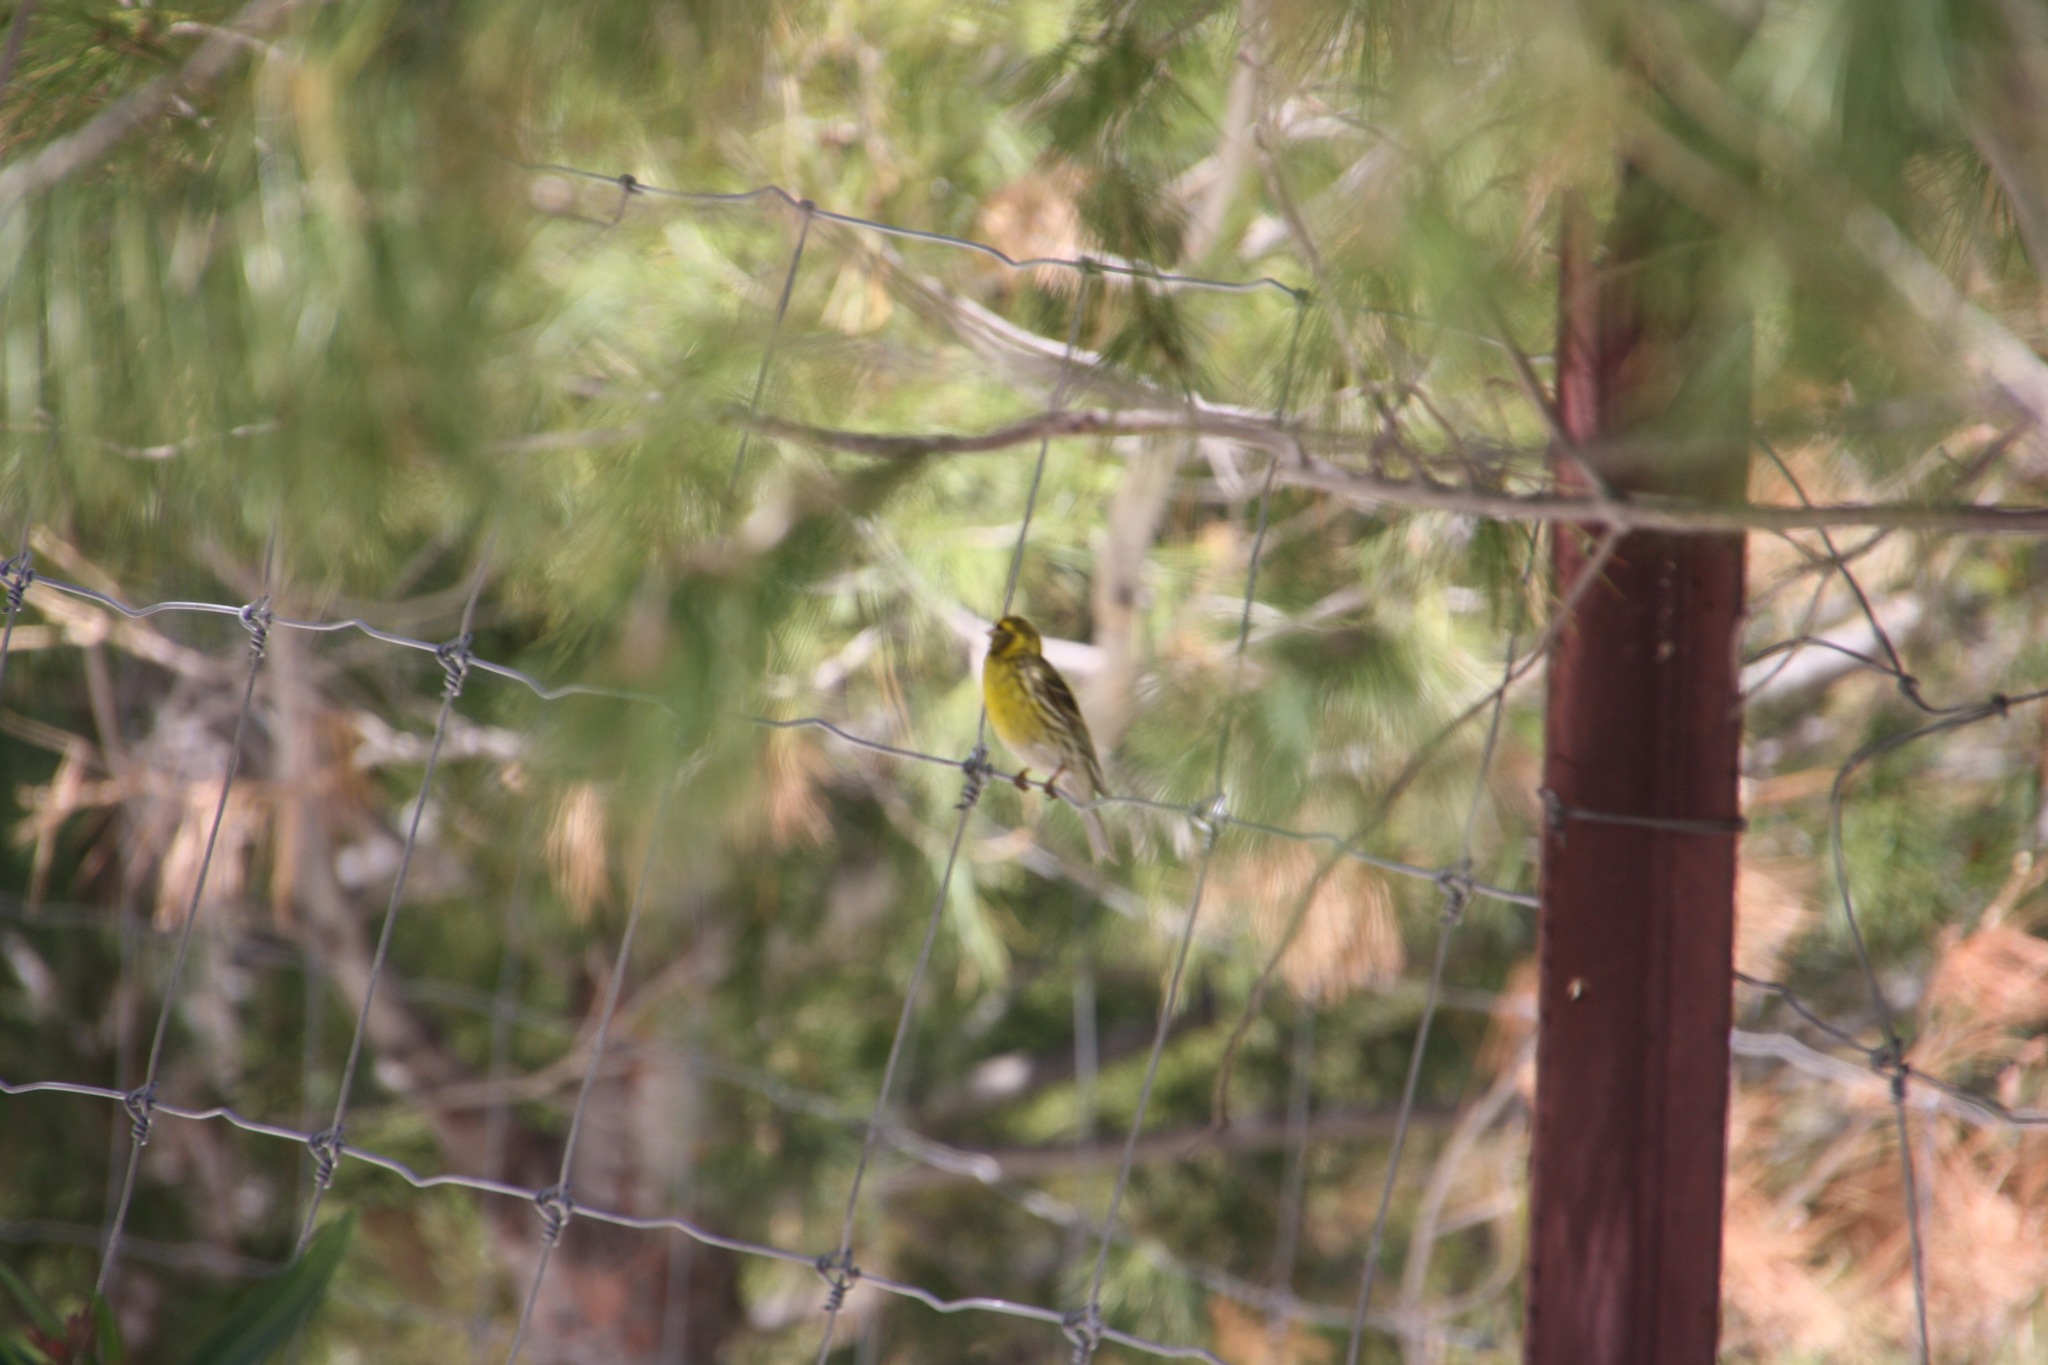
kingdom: Animalia
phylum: Chordata
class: Aves
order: Passeriformes
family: Fringillidae
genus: Serinus
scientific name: Serinus serinus
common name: European serin
